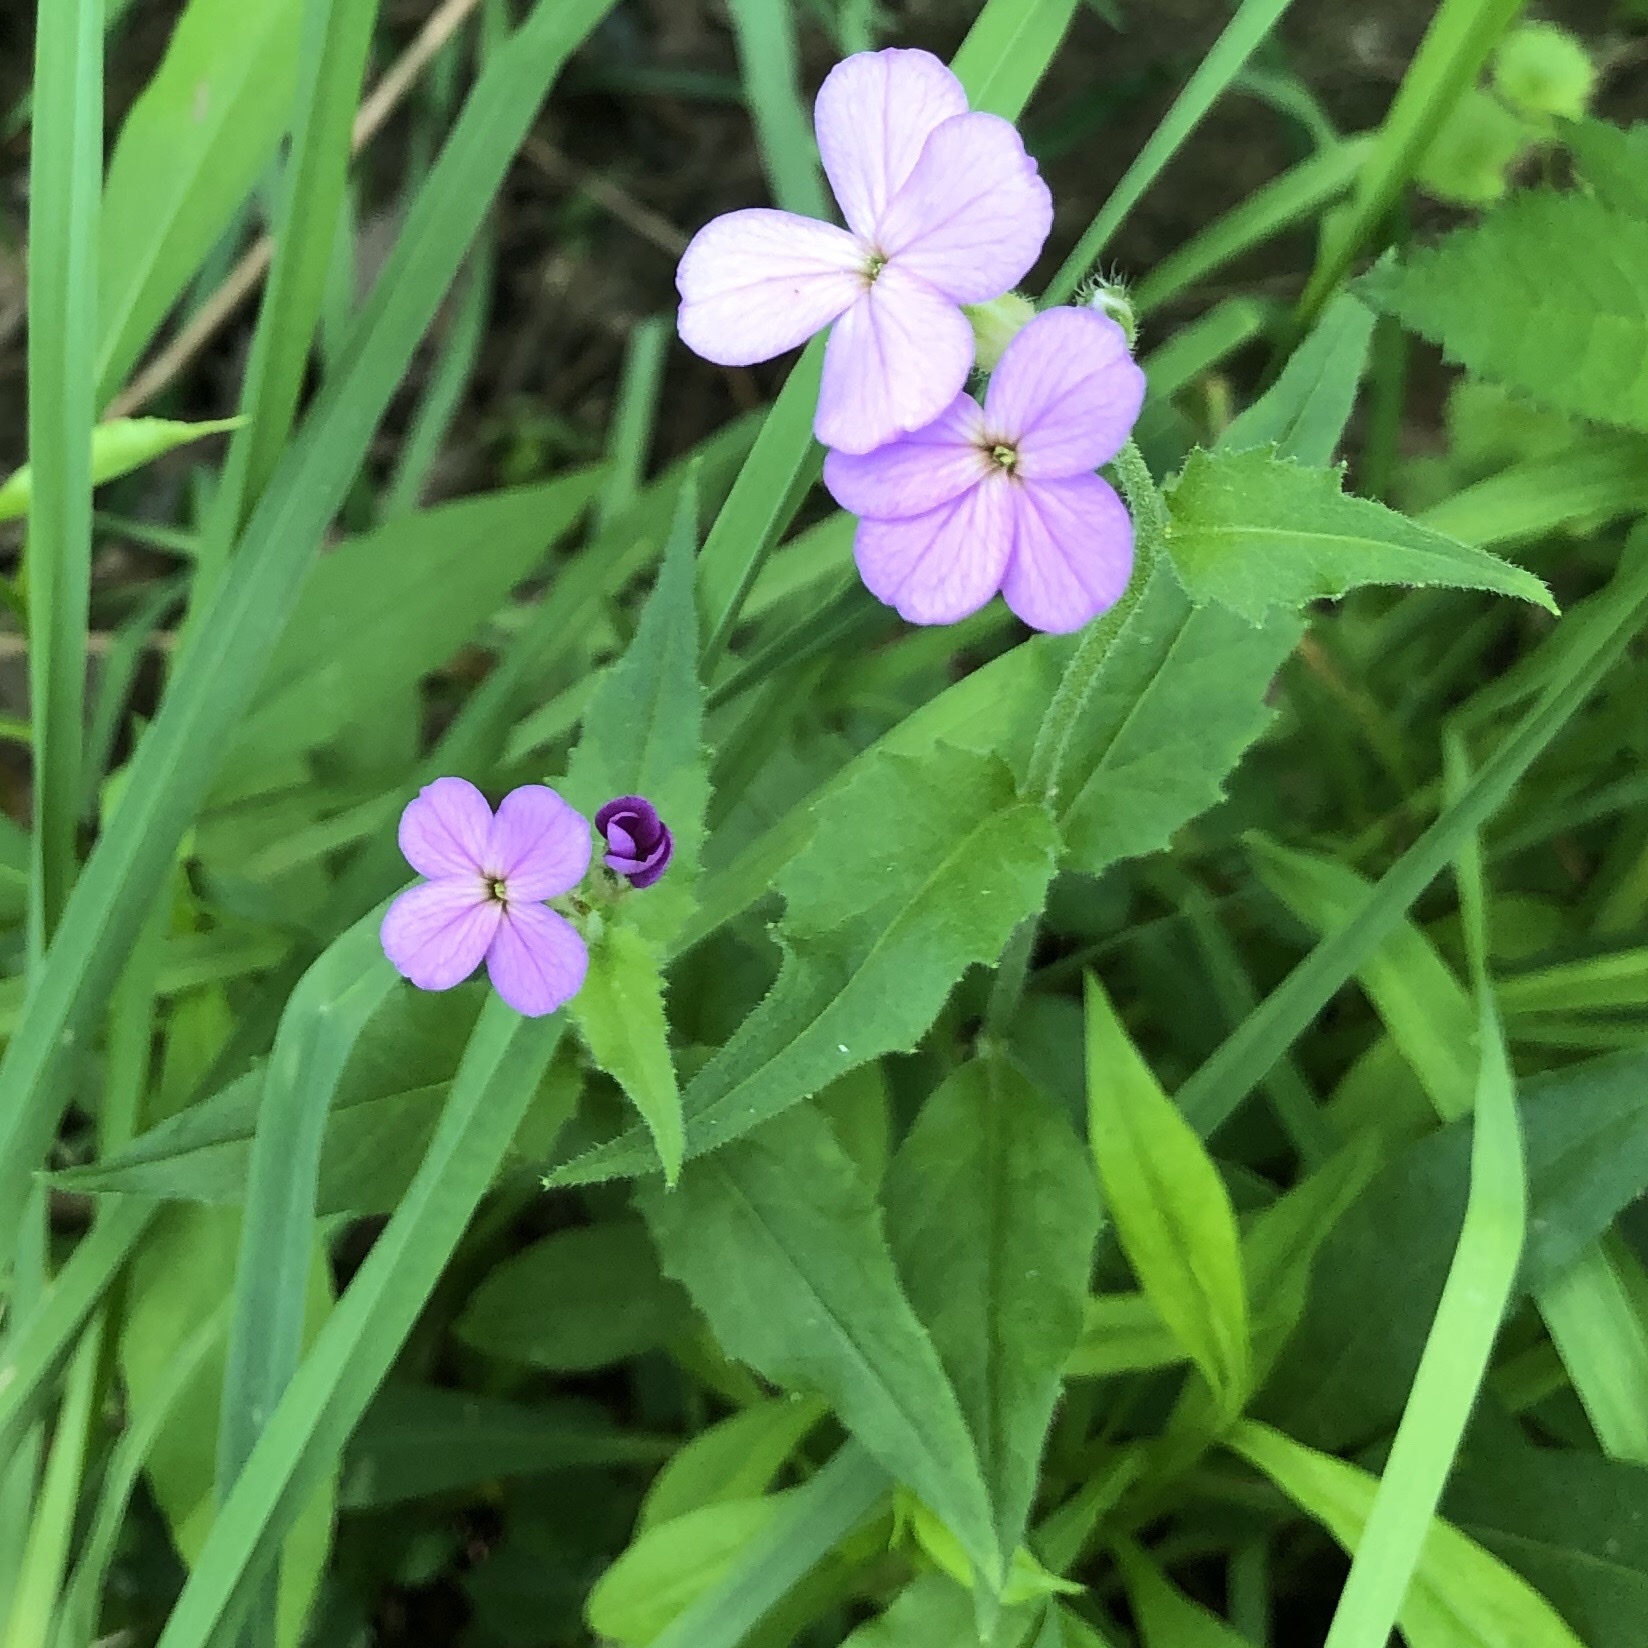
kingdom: Plantae
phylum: Tracheophyta
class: Magnoliopsida
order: Brassicales
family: Brassicaceae
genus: Hesperis
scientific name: Hesperis matronalis
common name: Dame's-violet
